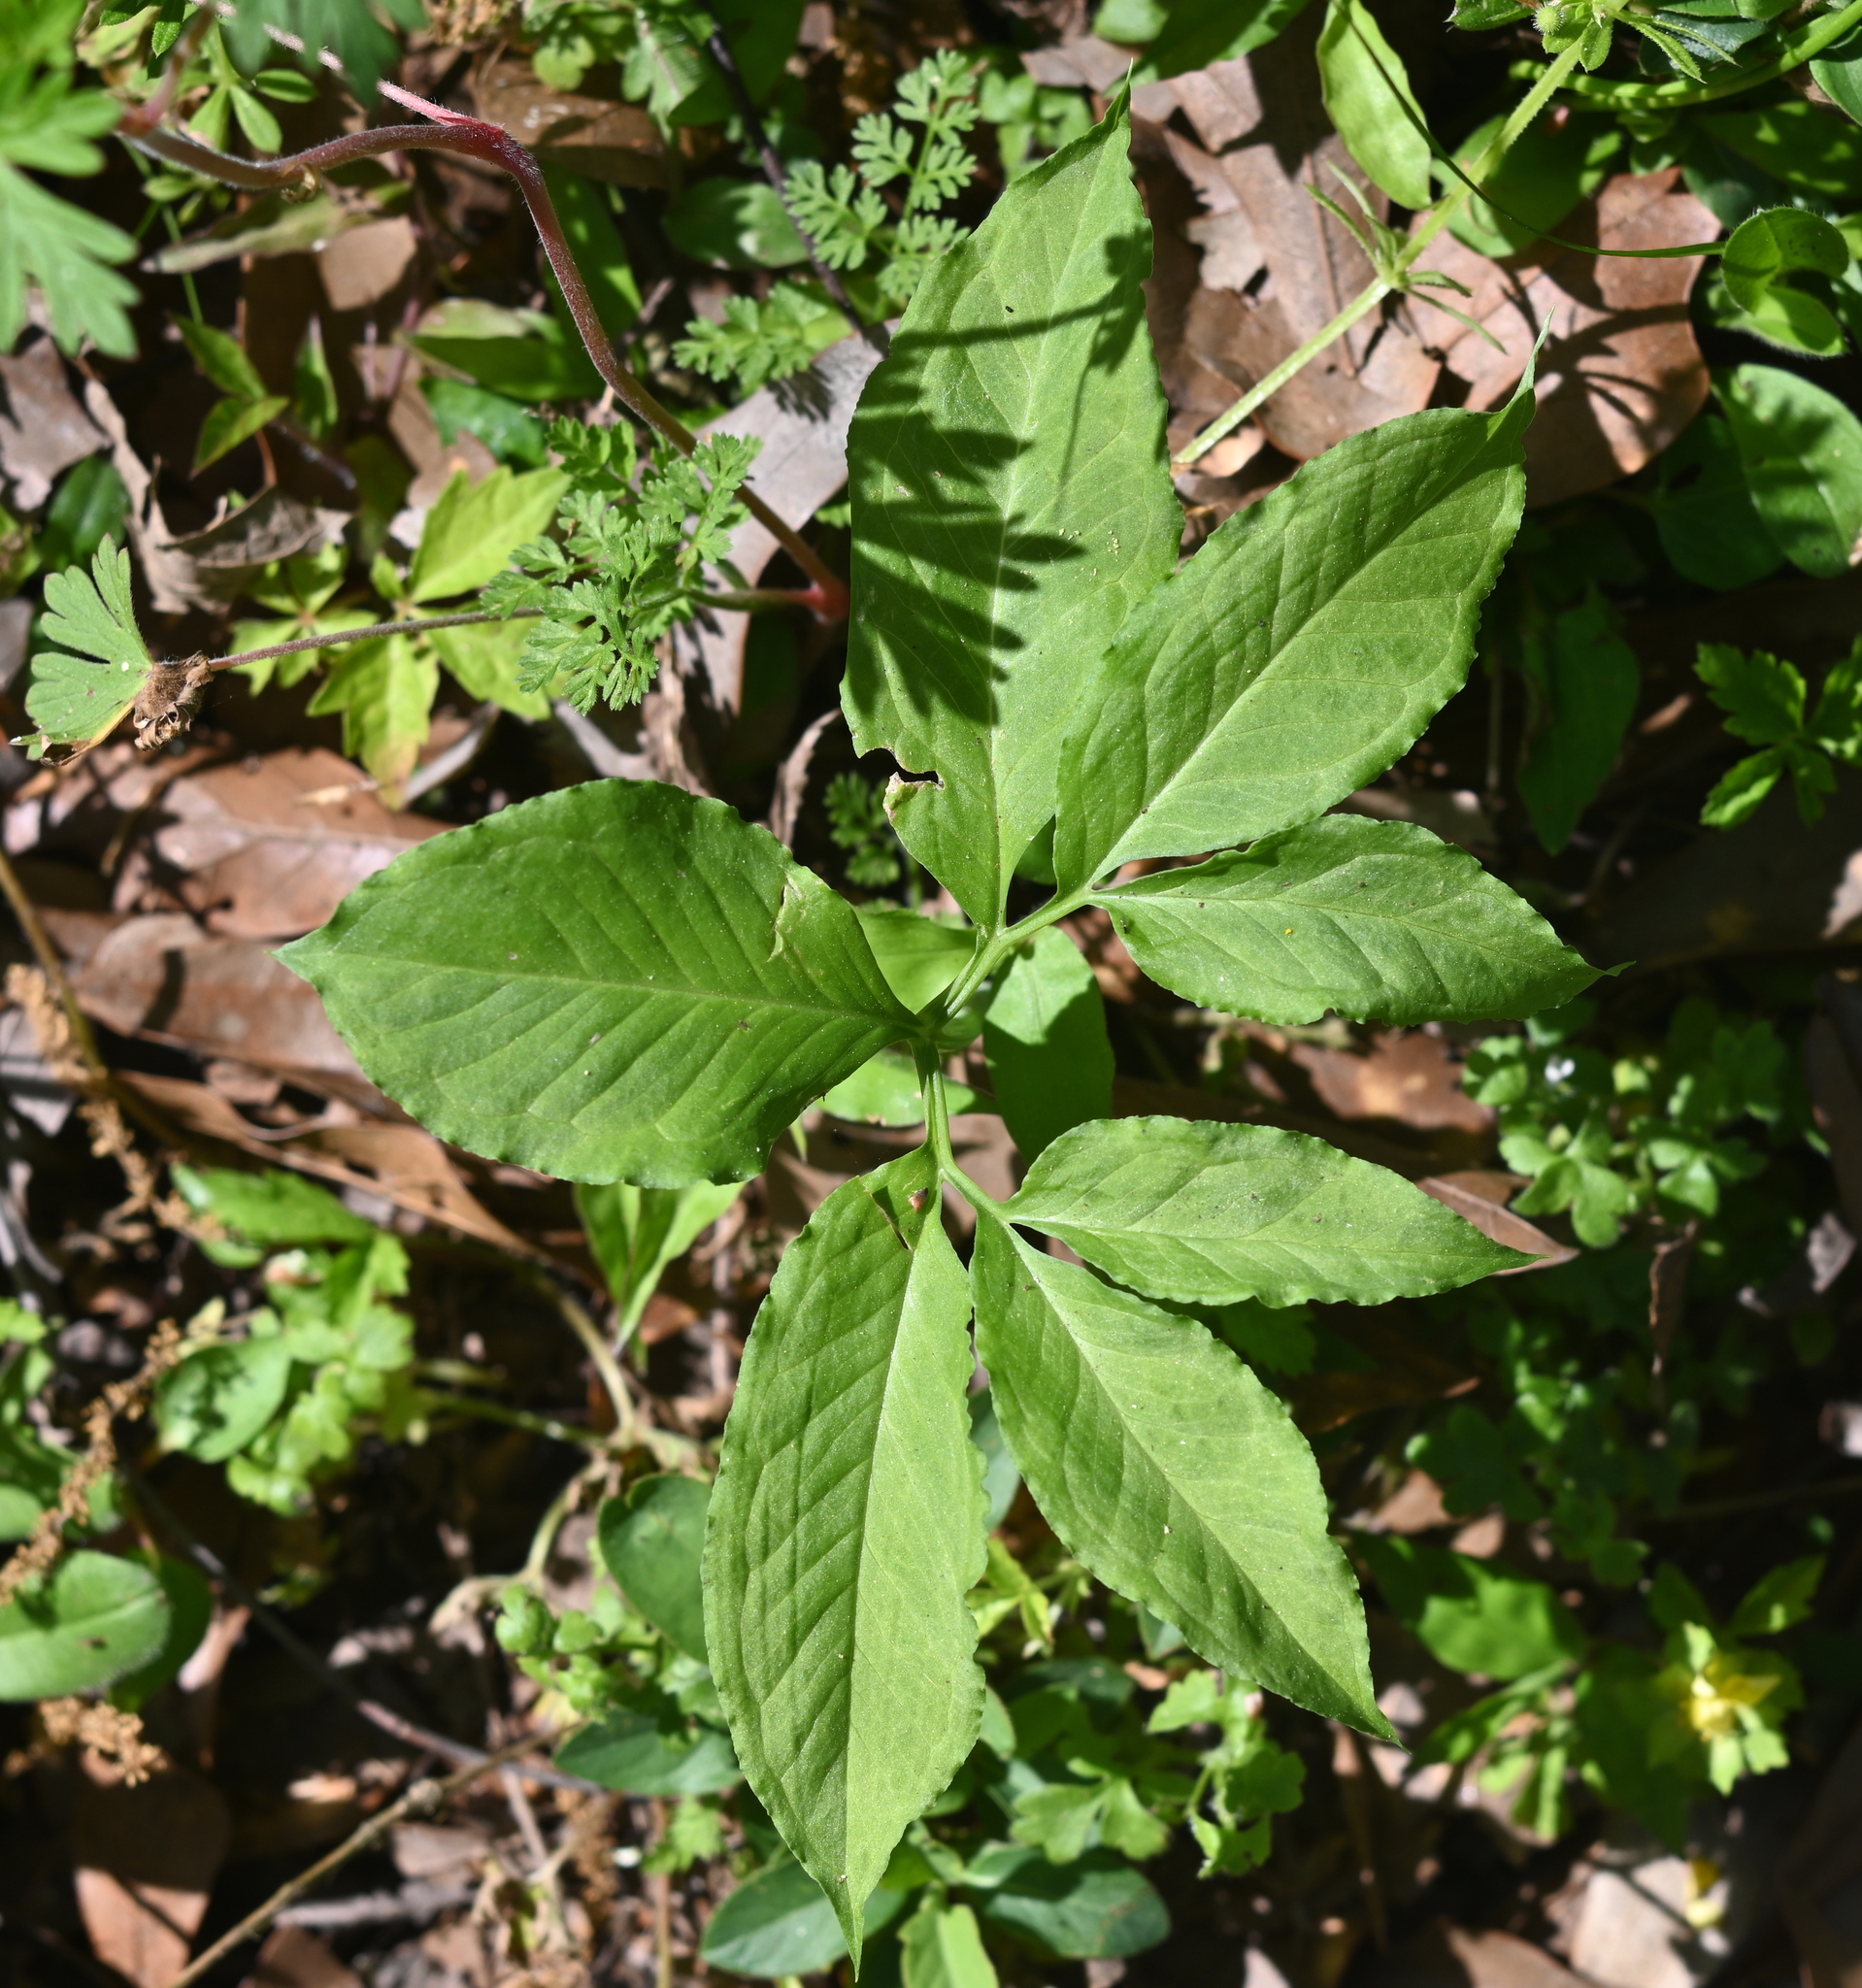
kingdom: Plantae
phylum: Tracheophyta
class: Liliopsida
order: Alismatales
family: Araceae
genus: Arisaema
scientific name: Arisaema dracontium
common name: Dragon-arum
